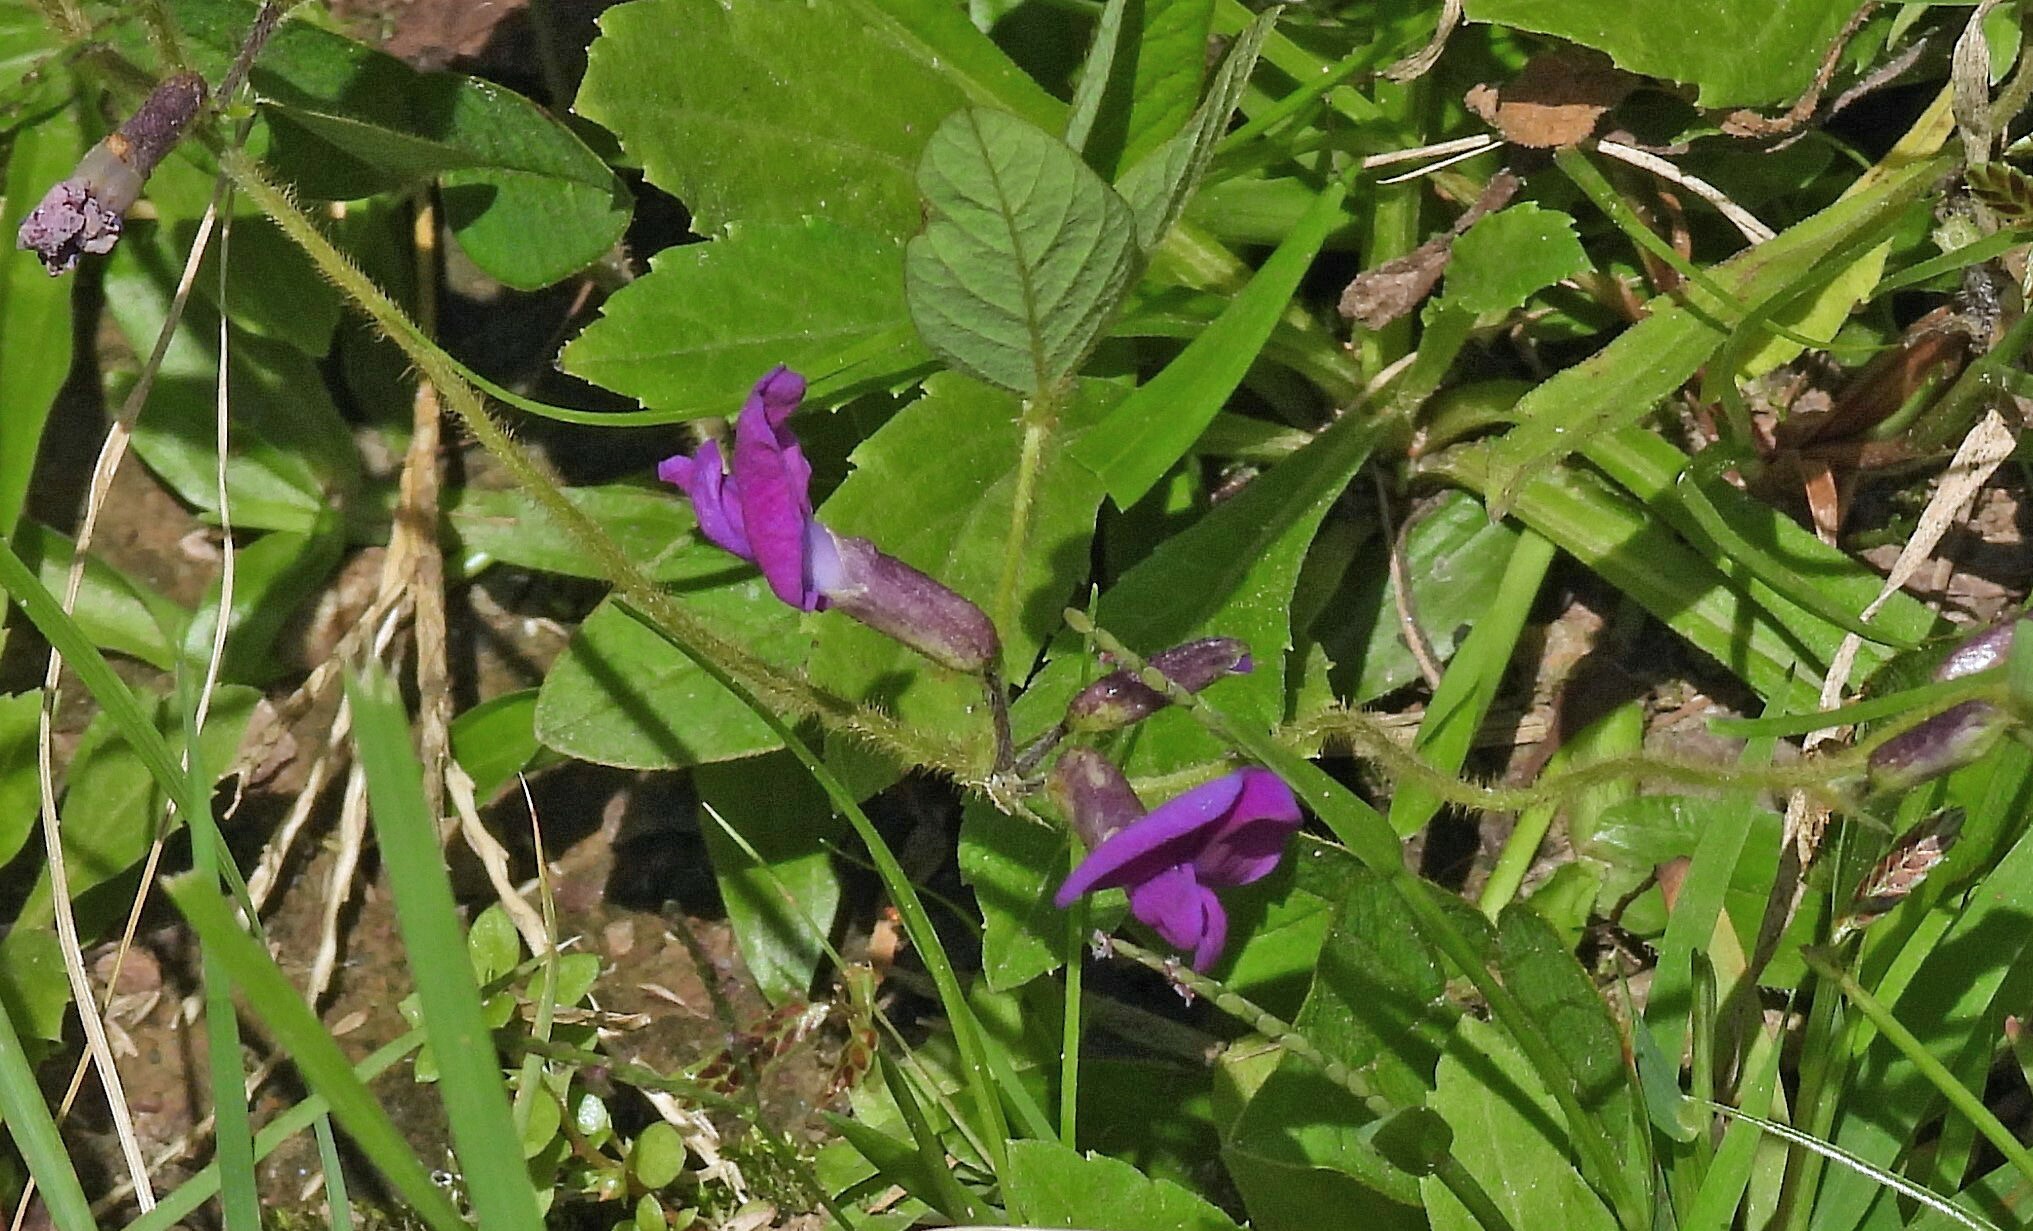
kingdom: Plantae
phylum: Tracheophyta
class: Magnoliopsida
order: Fabales
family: Fabaceae
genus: Cologania
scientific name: Cologania broussonetii
